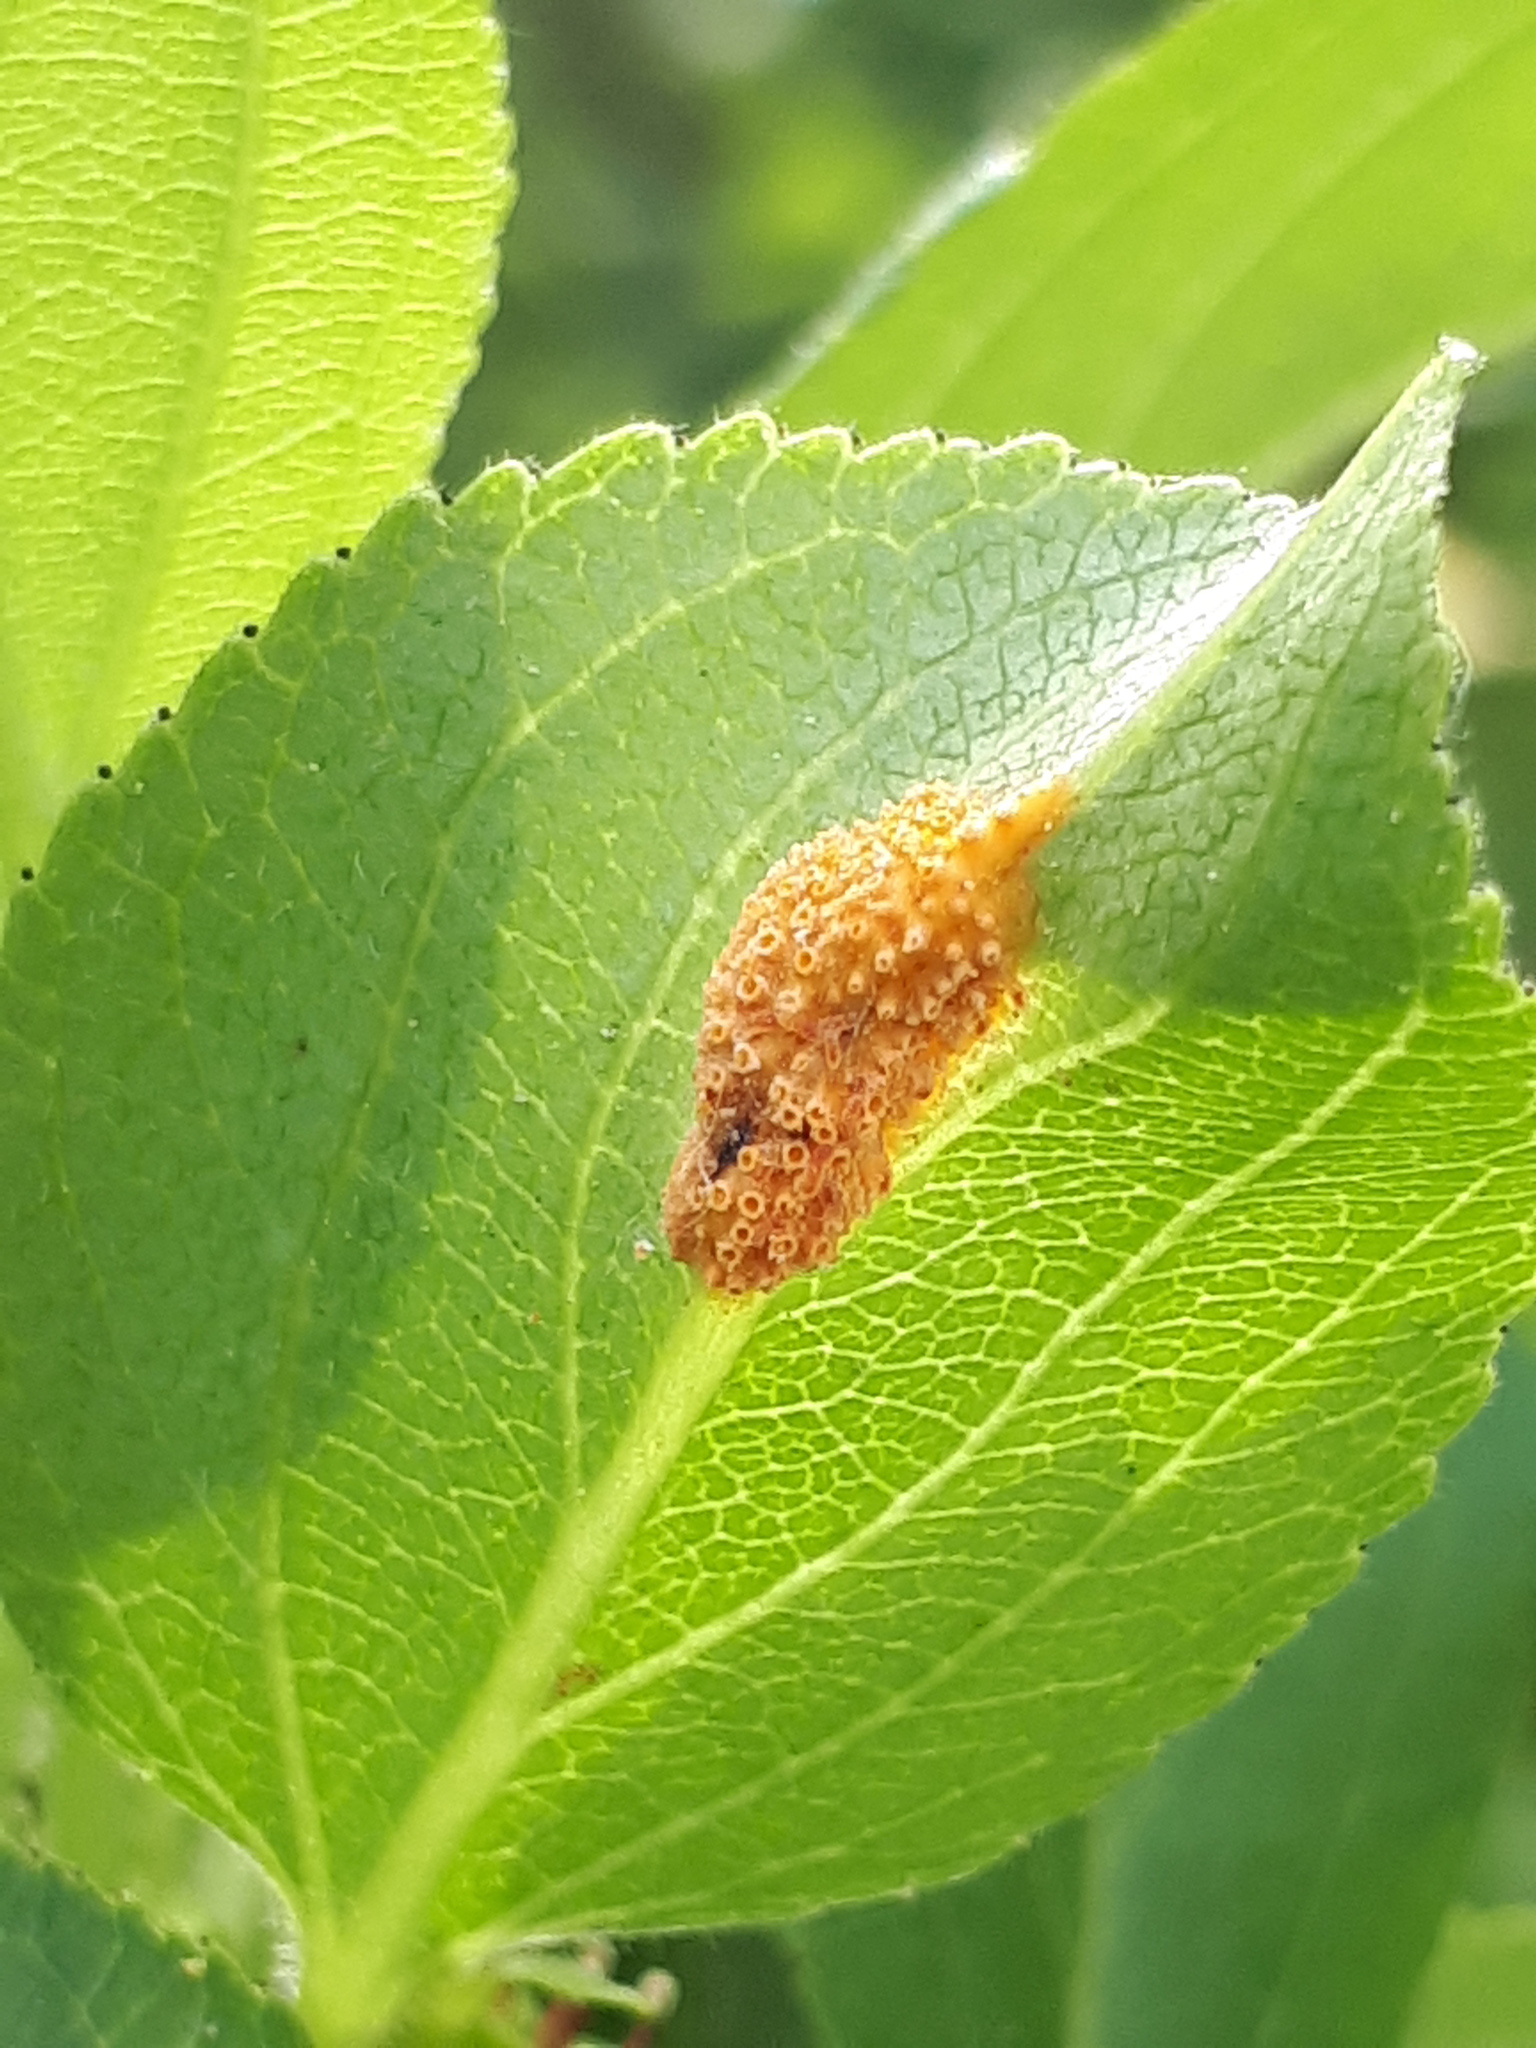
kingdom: Fungi
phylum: Basidiomycota
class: Pucciniomycetes
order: Pucciniales
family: Pucciniaceae
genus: Puccinia
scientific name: Puccinia coronata
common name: Crown rust
